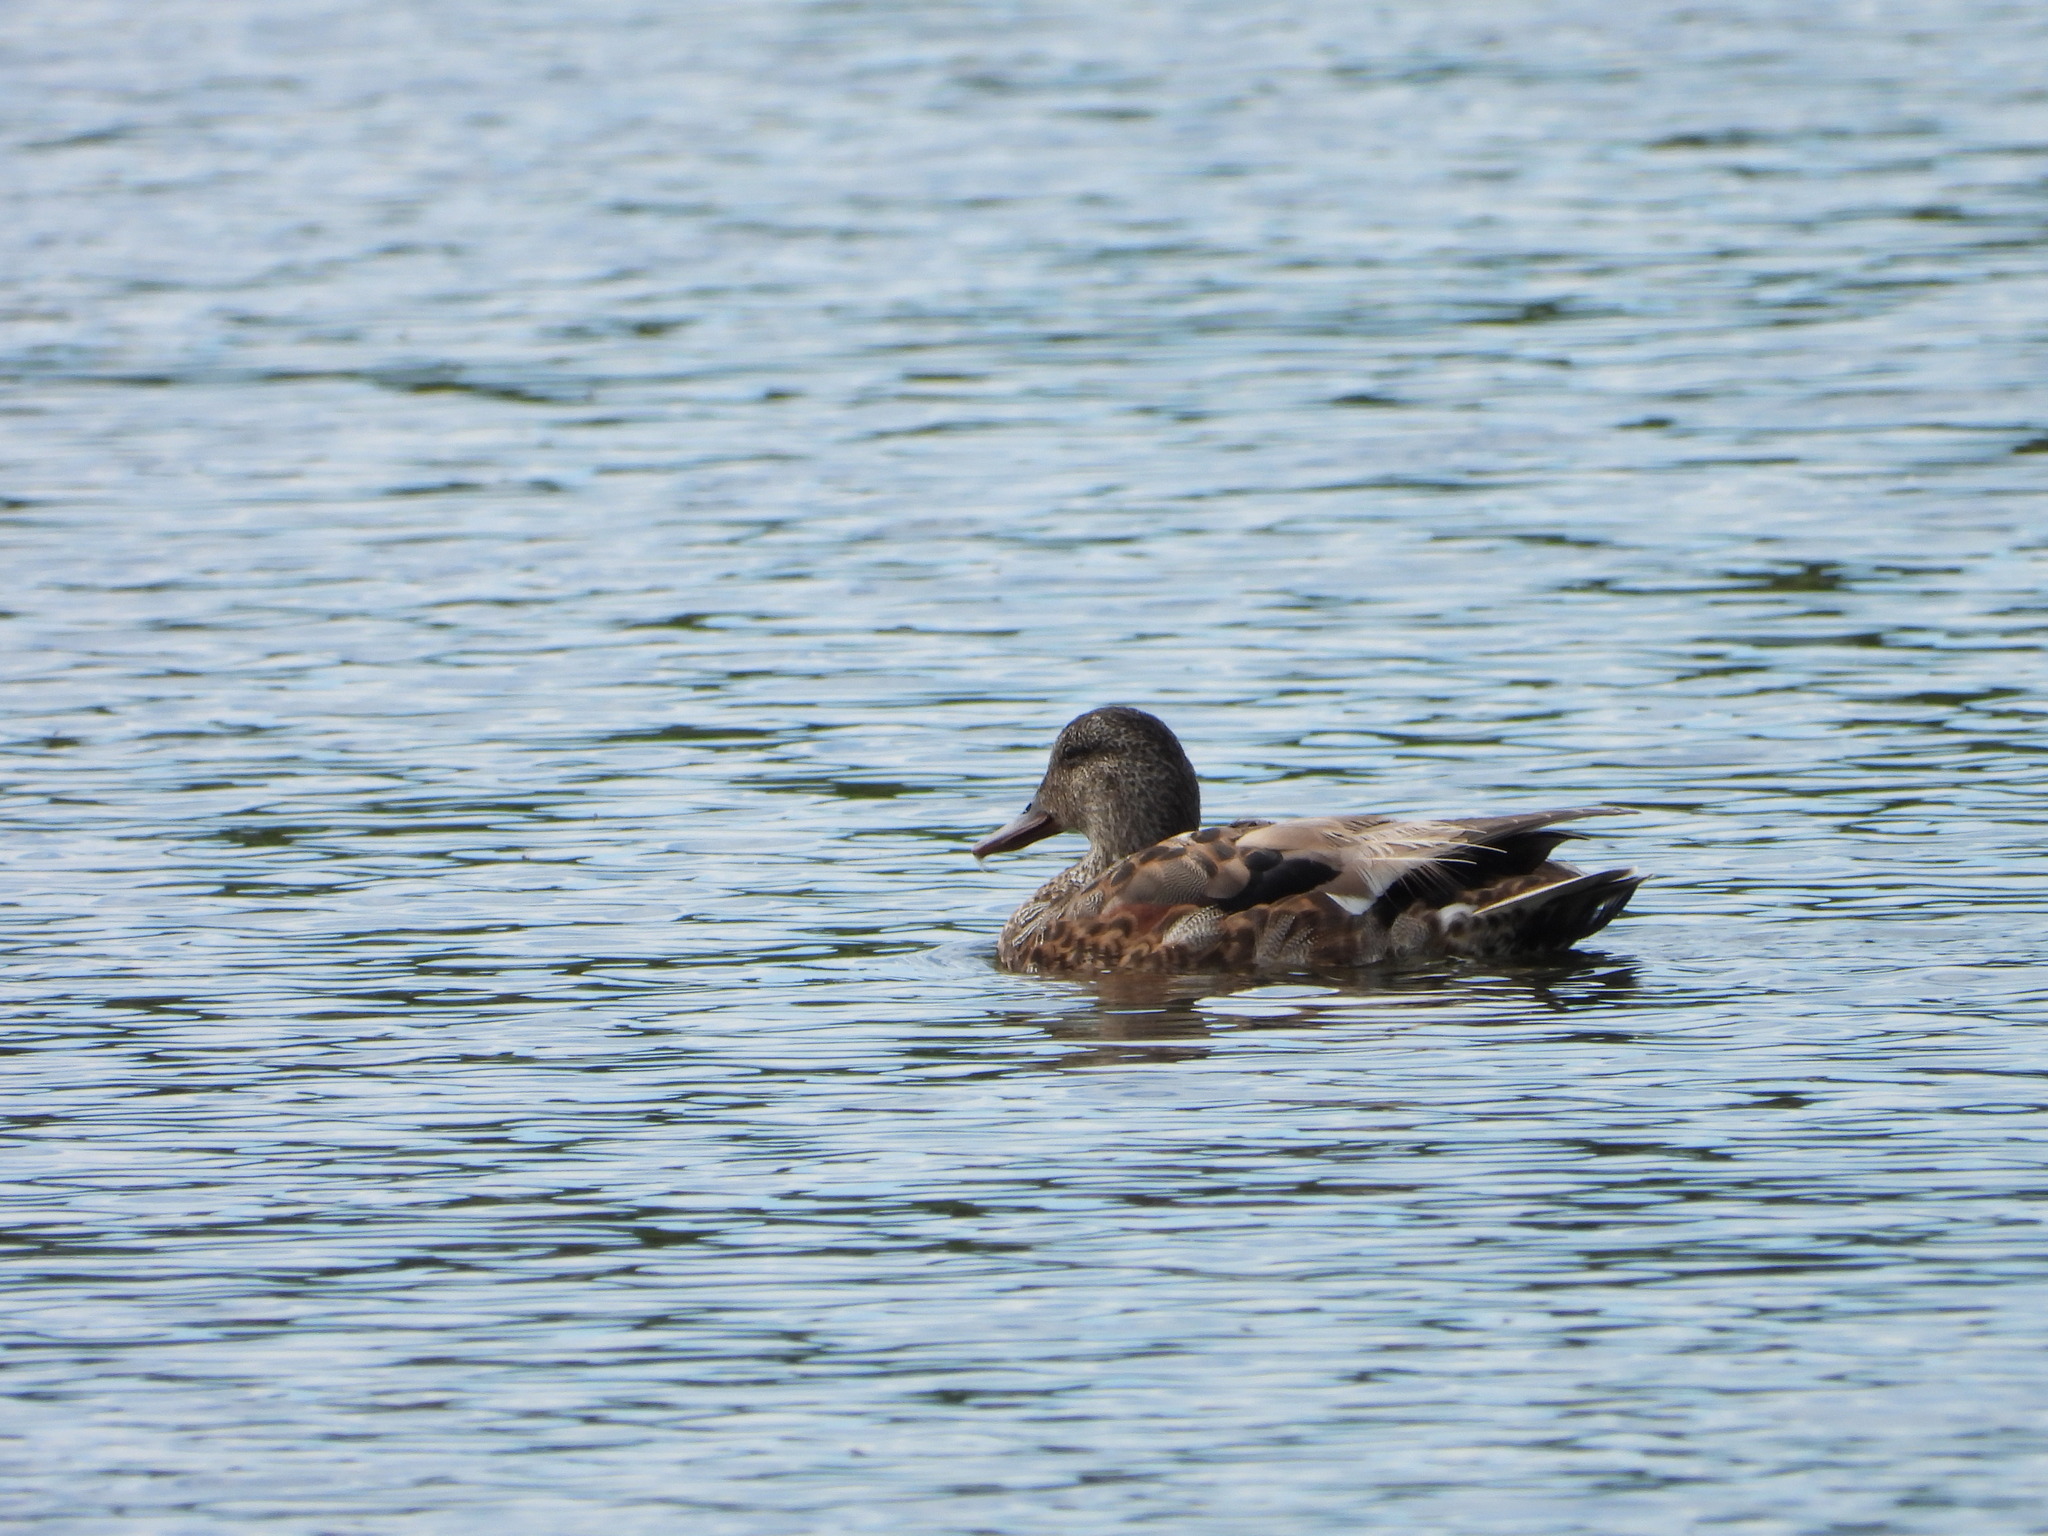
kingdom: Animalia
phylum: Chordata
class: Aves
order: Anseriformes
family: Anatidae
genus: Mareca
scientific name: Mareca strepera
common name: Gadwall
